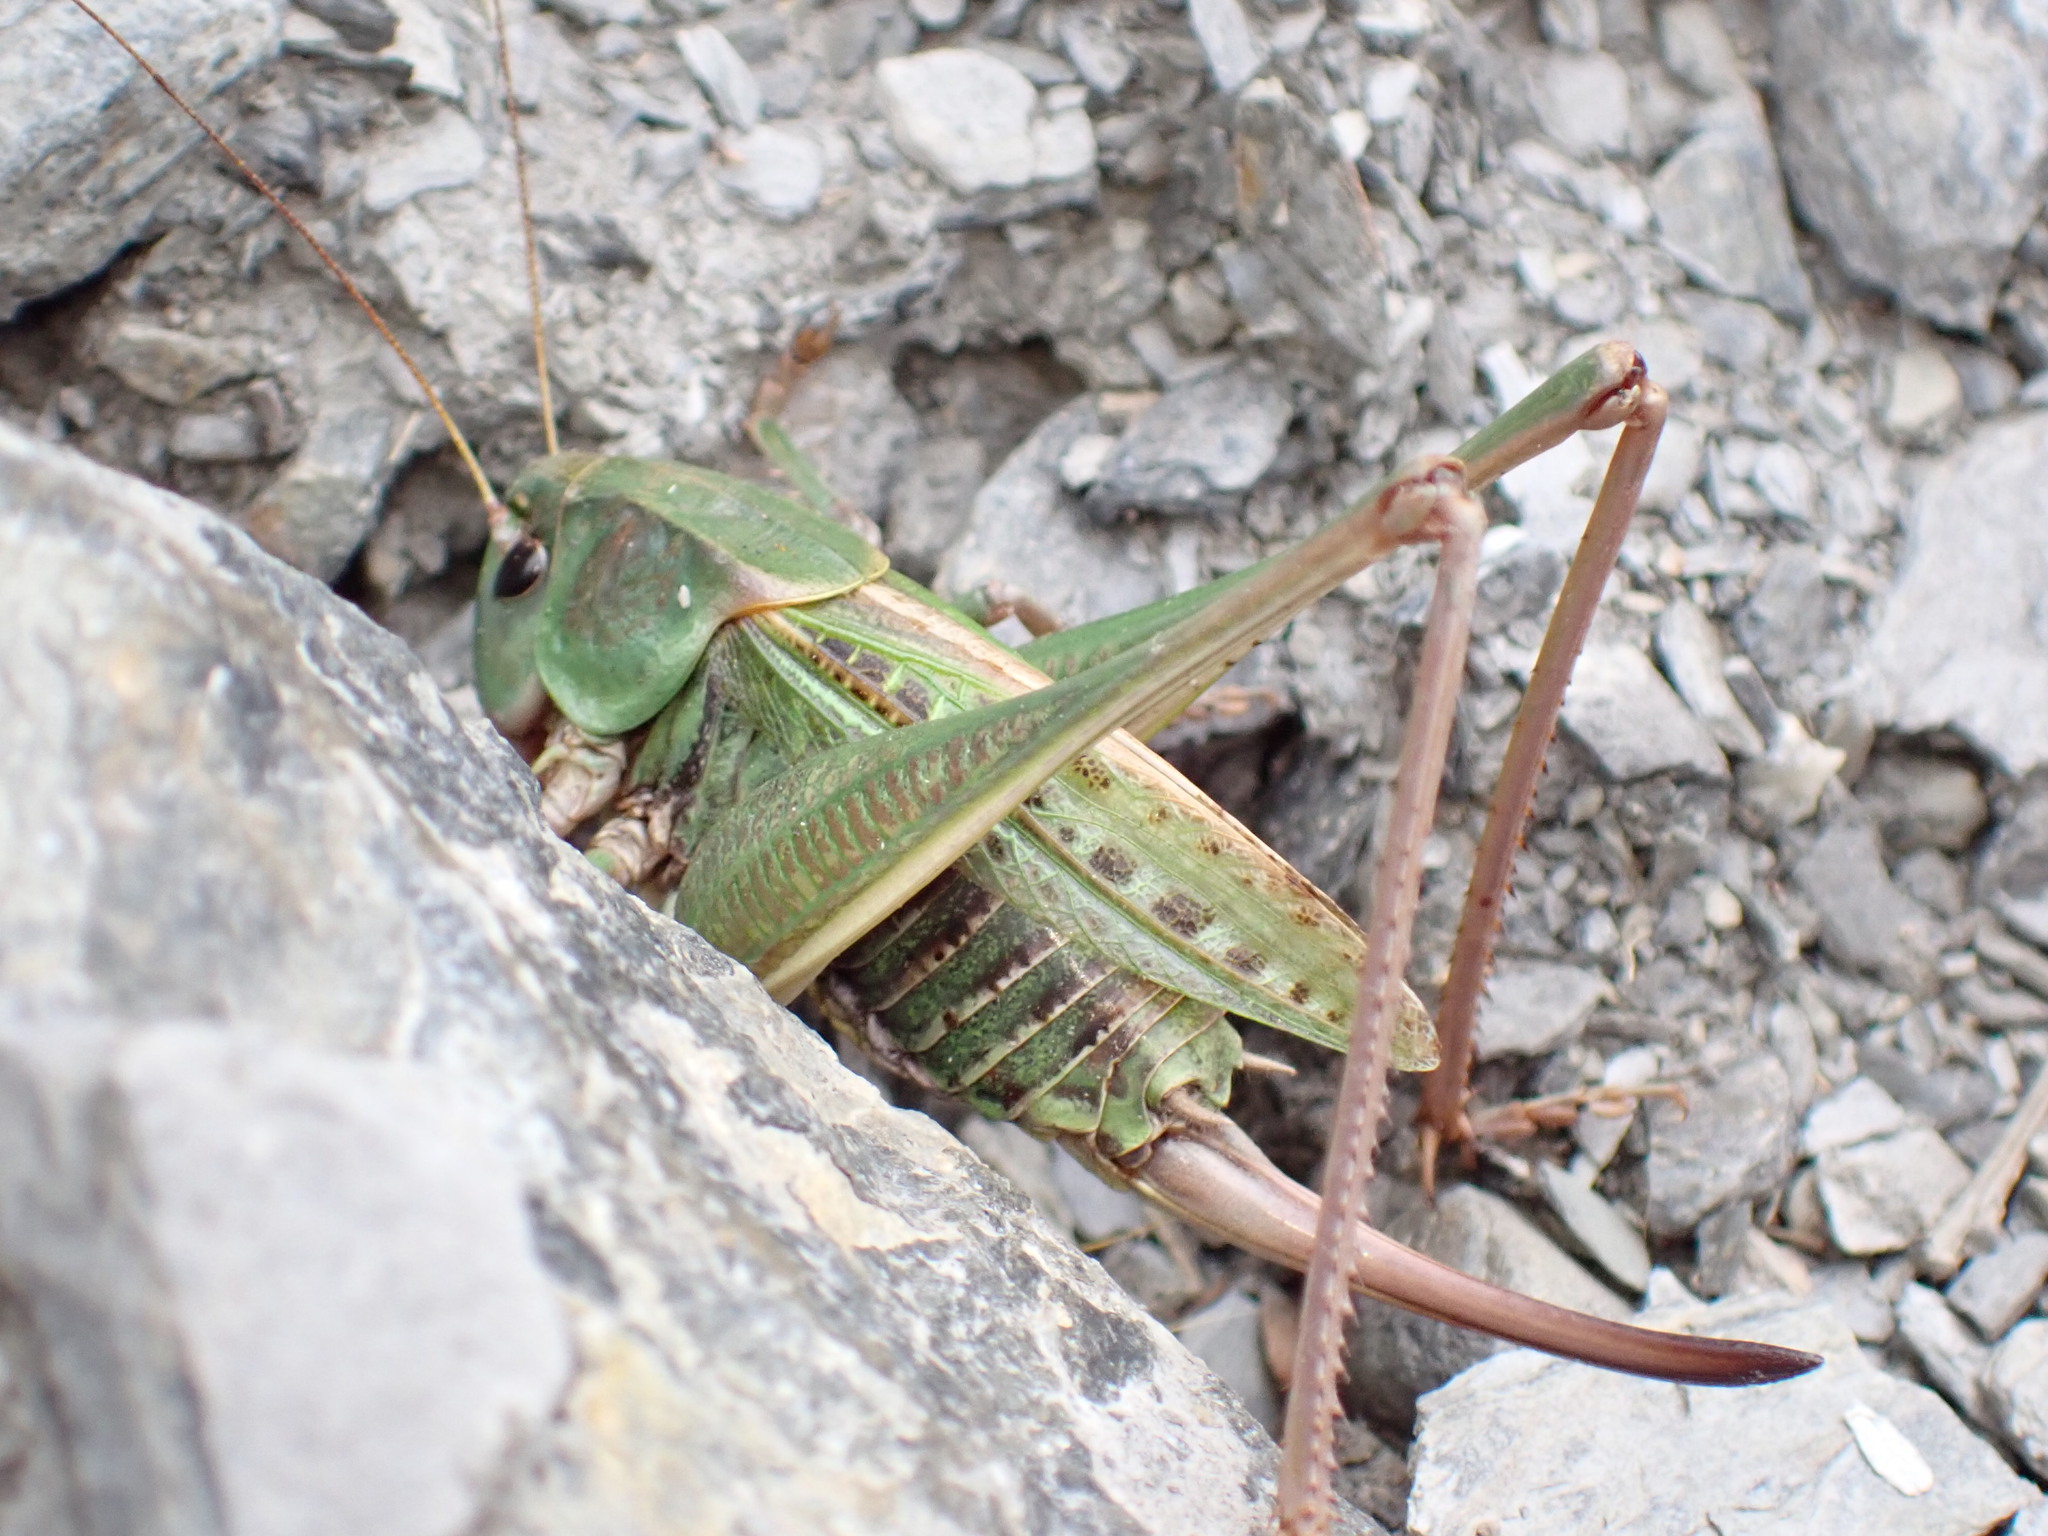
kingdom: Animalia
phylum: Arthropoda
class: Insecta
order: Orthoptera
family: Tettigoniidae
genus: Decticus
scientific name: Decticus verrucivorus
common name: Wart-biter
